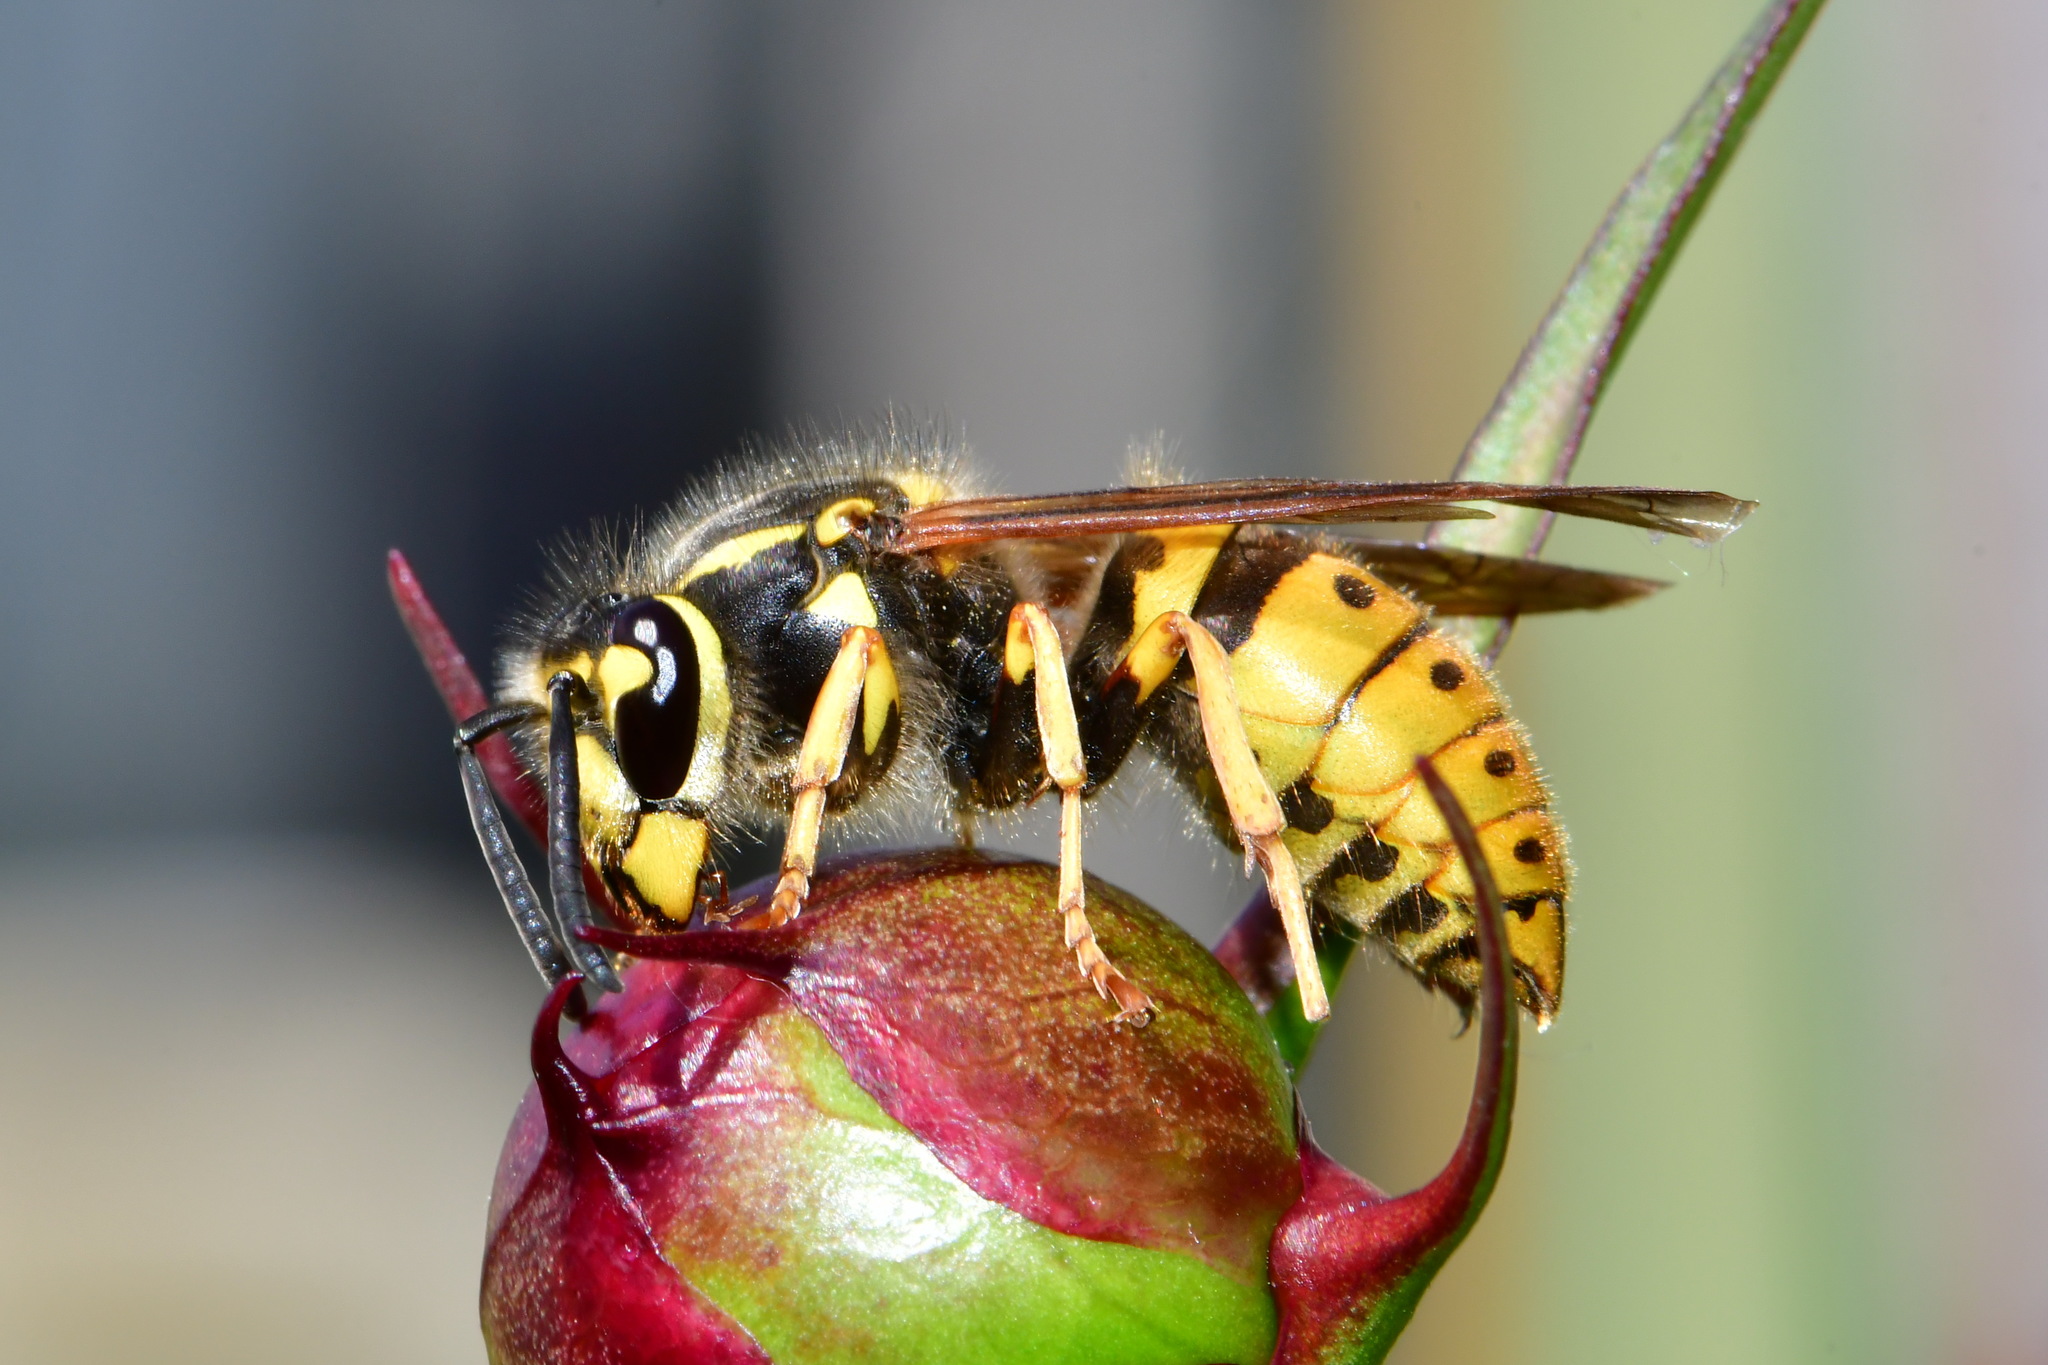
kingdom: Animalia
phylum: Arthropoda
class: Insecta
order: Hymenoptera
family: Vespidae
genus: Vespula
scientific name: Vespula germanica
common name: German wasp
